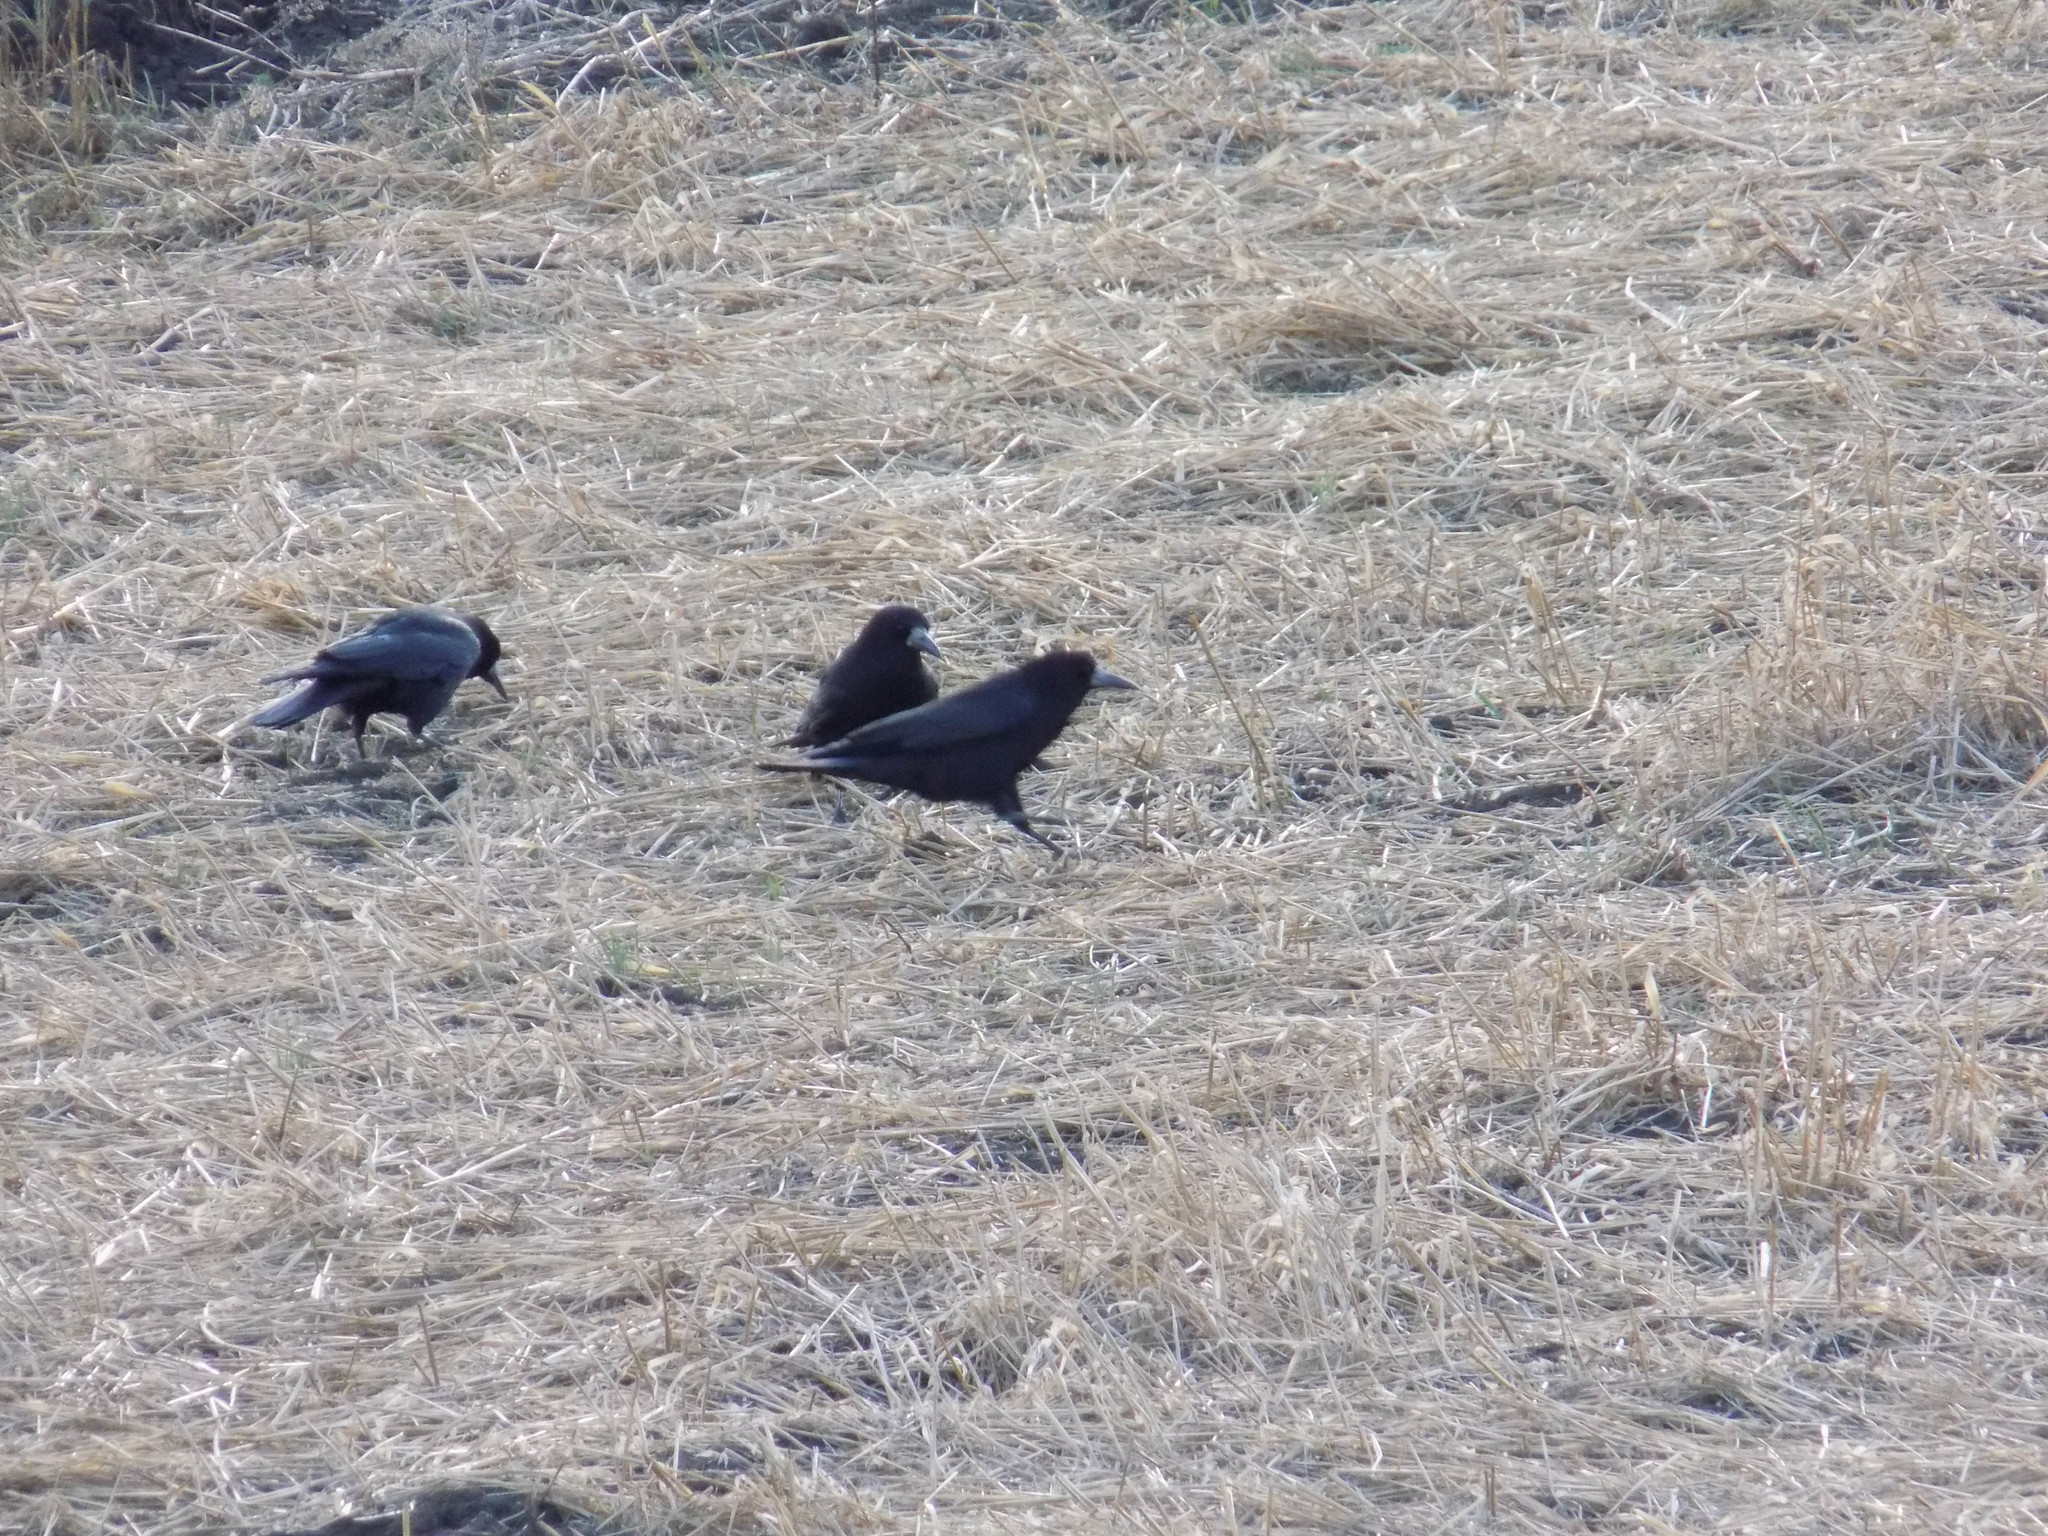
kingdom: Animalia
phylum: Chordata
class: Aves
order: Passeriformes
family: Corvidae
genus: Corvus
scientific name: Corvus frugilegus
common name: Rook
